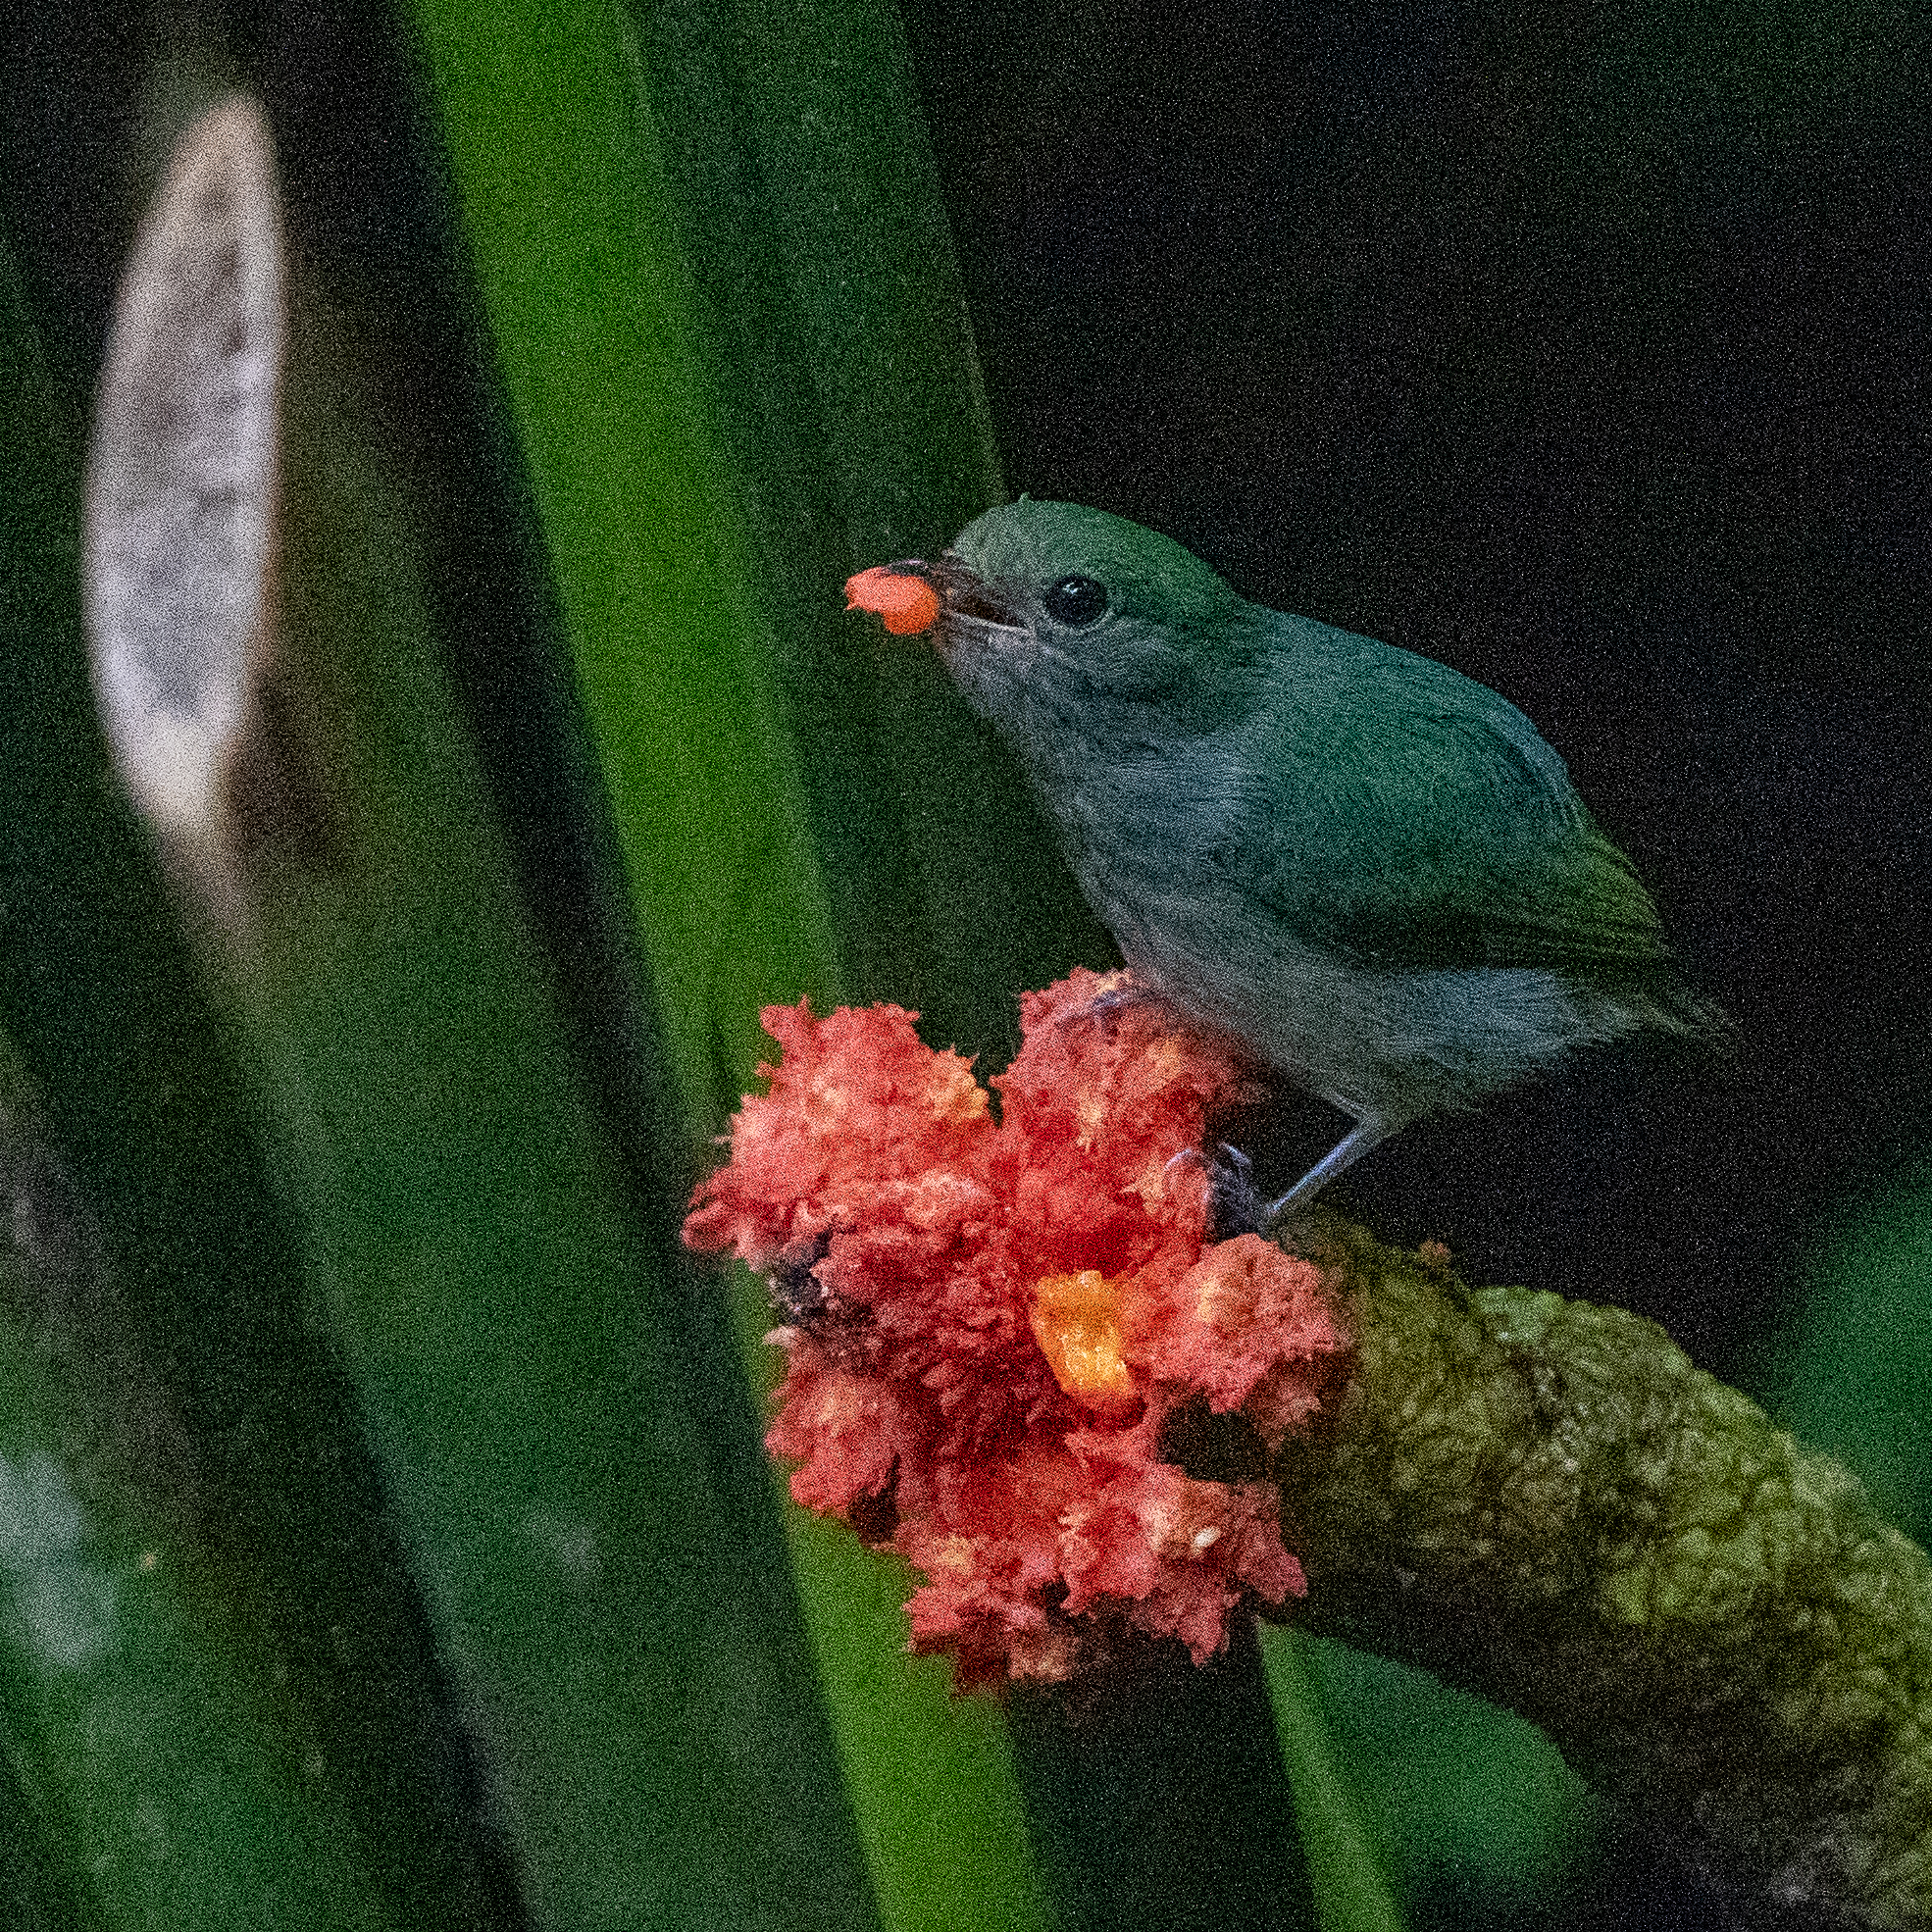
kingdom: Animalia
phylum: Chordata
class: Aves
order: Passeriformes
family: Pipridae
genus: Lepidothrix
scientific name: Lepidothrix coronata
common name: Blue-crowned manakin
